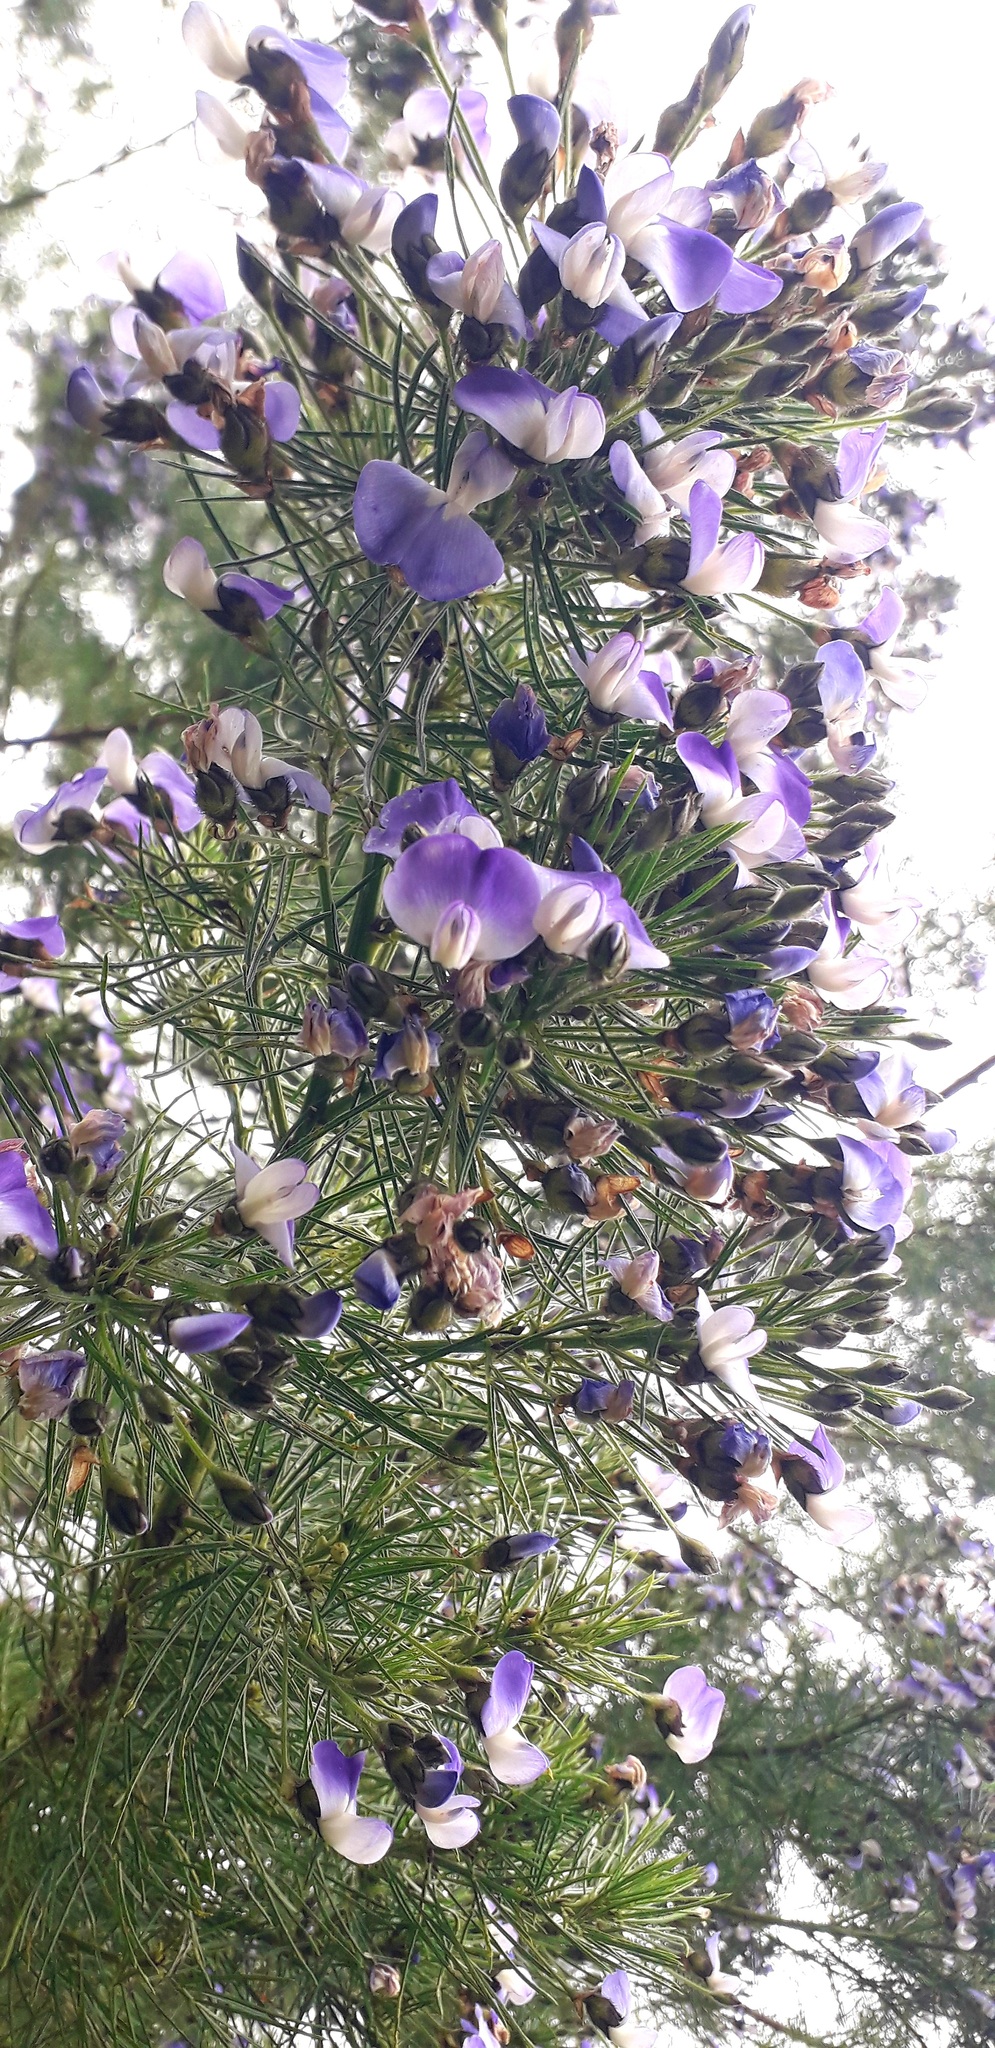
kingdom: Plantae
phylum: Tracheophyta
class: Magnoliopsida
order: Fabales
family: Fabaceae
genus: Psoralea
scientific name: Psoralea arborea
